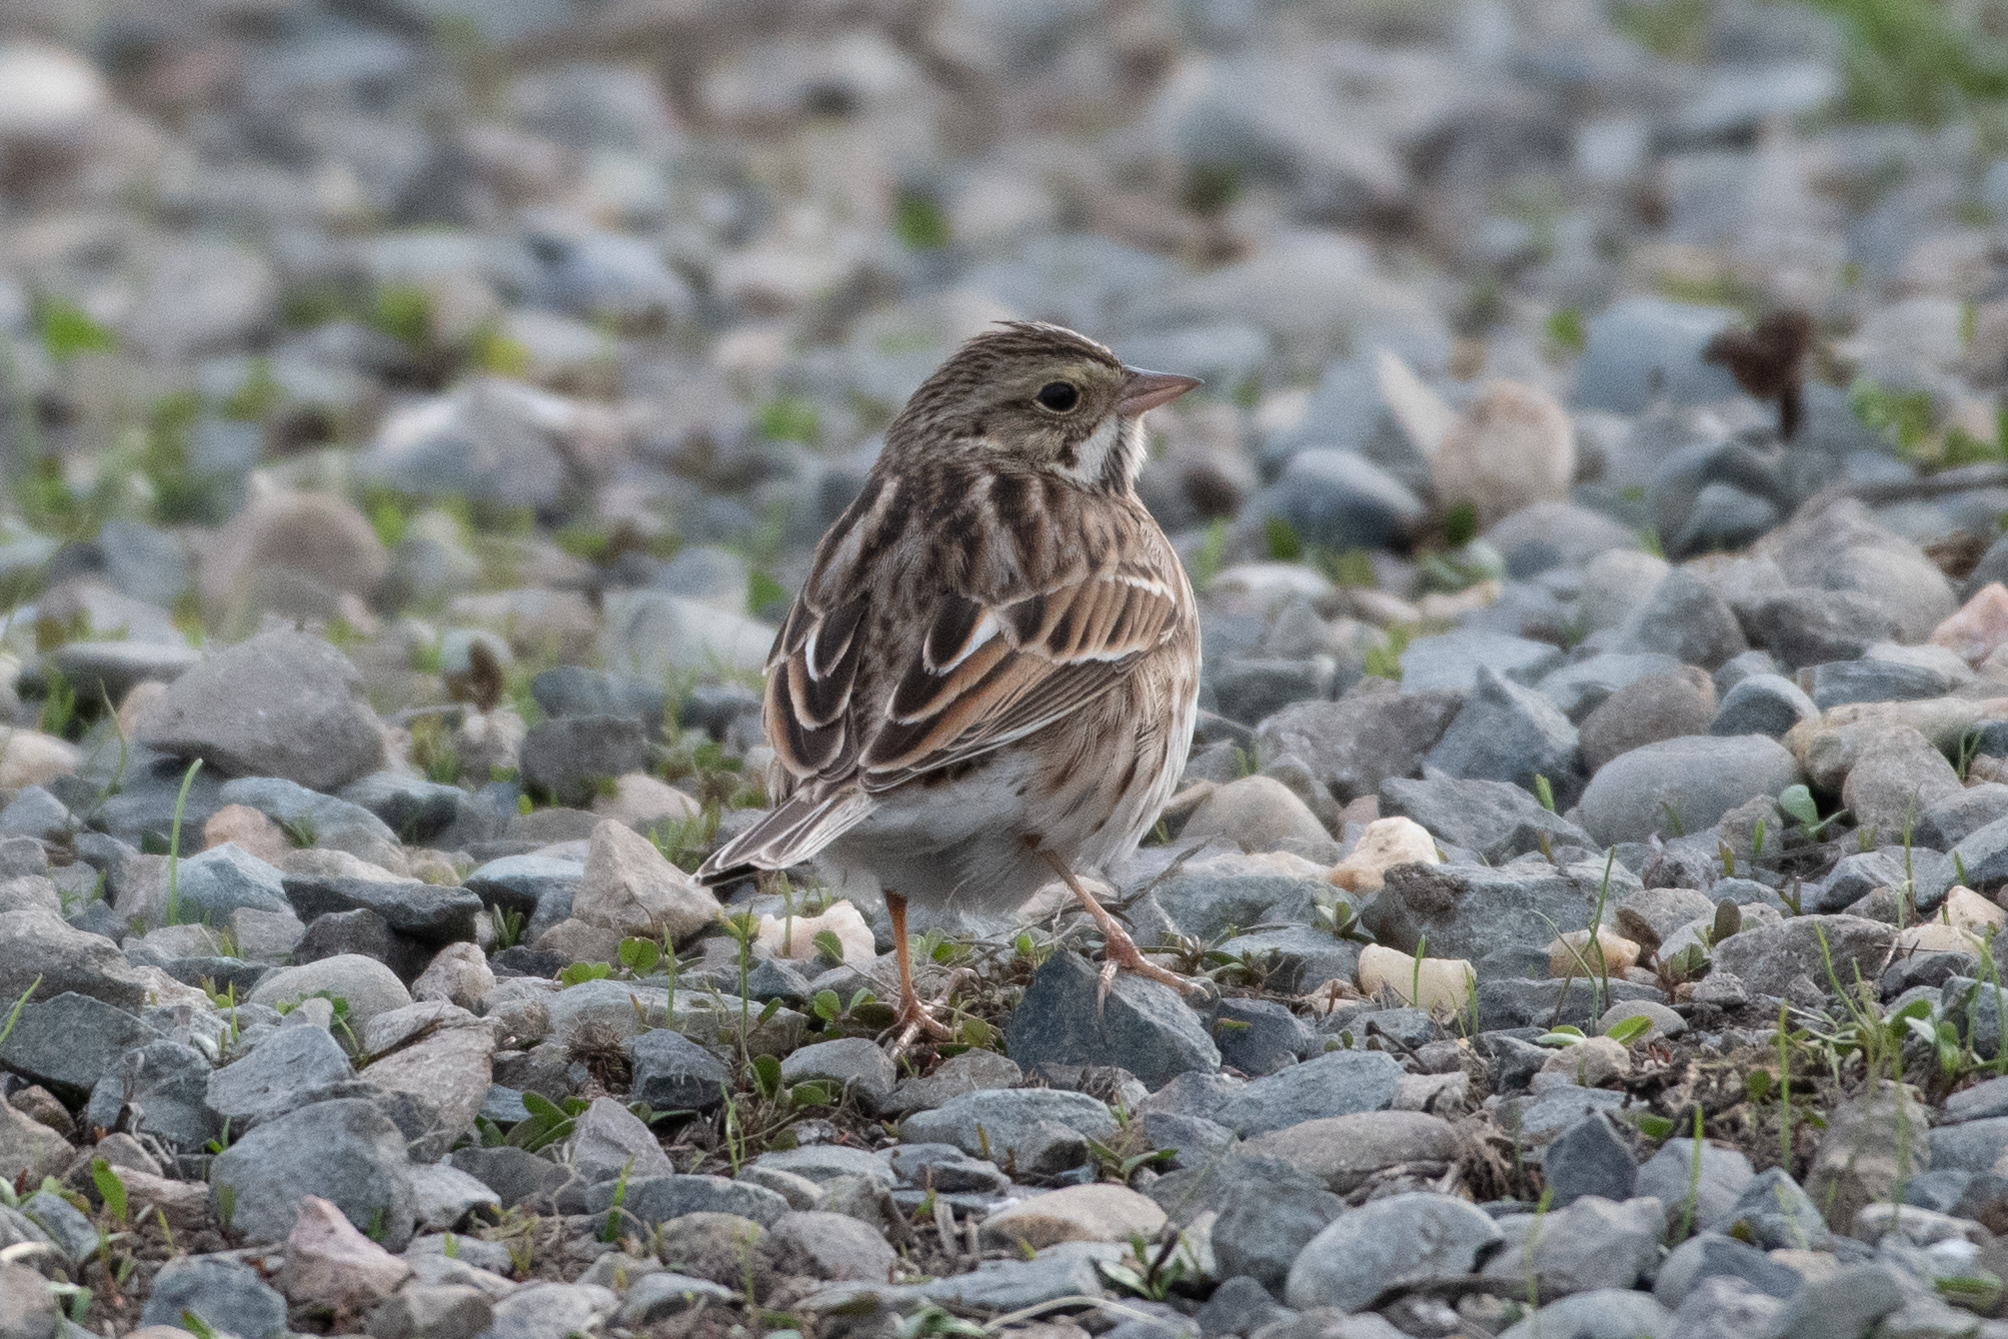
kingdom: Animalia
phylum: Chordata
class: Aves
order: Passeriformes
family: Passerellidae
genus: Passerculus
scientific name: Passerculus sandwichensis
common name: Savannah sparrow
